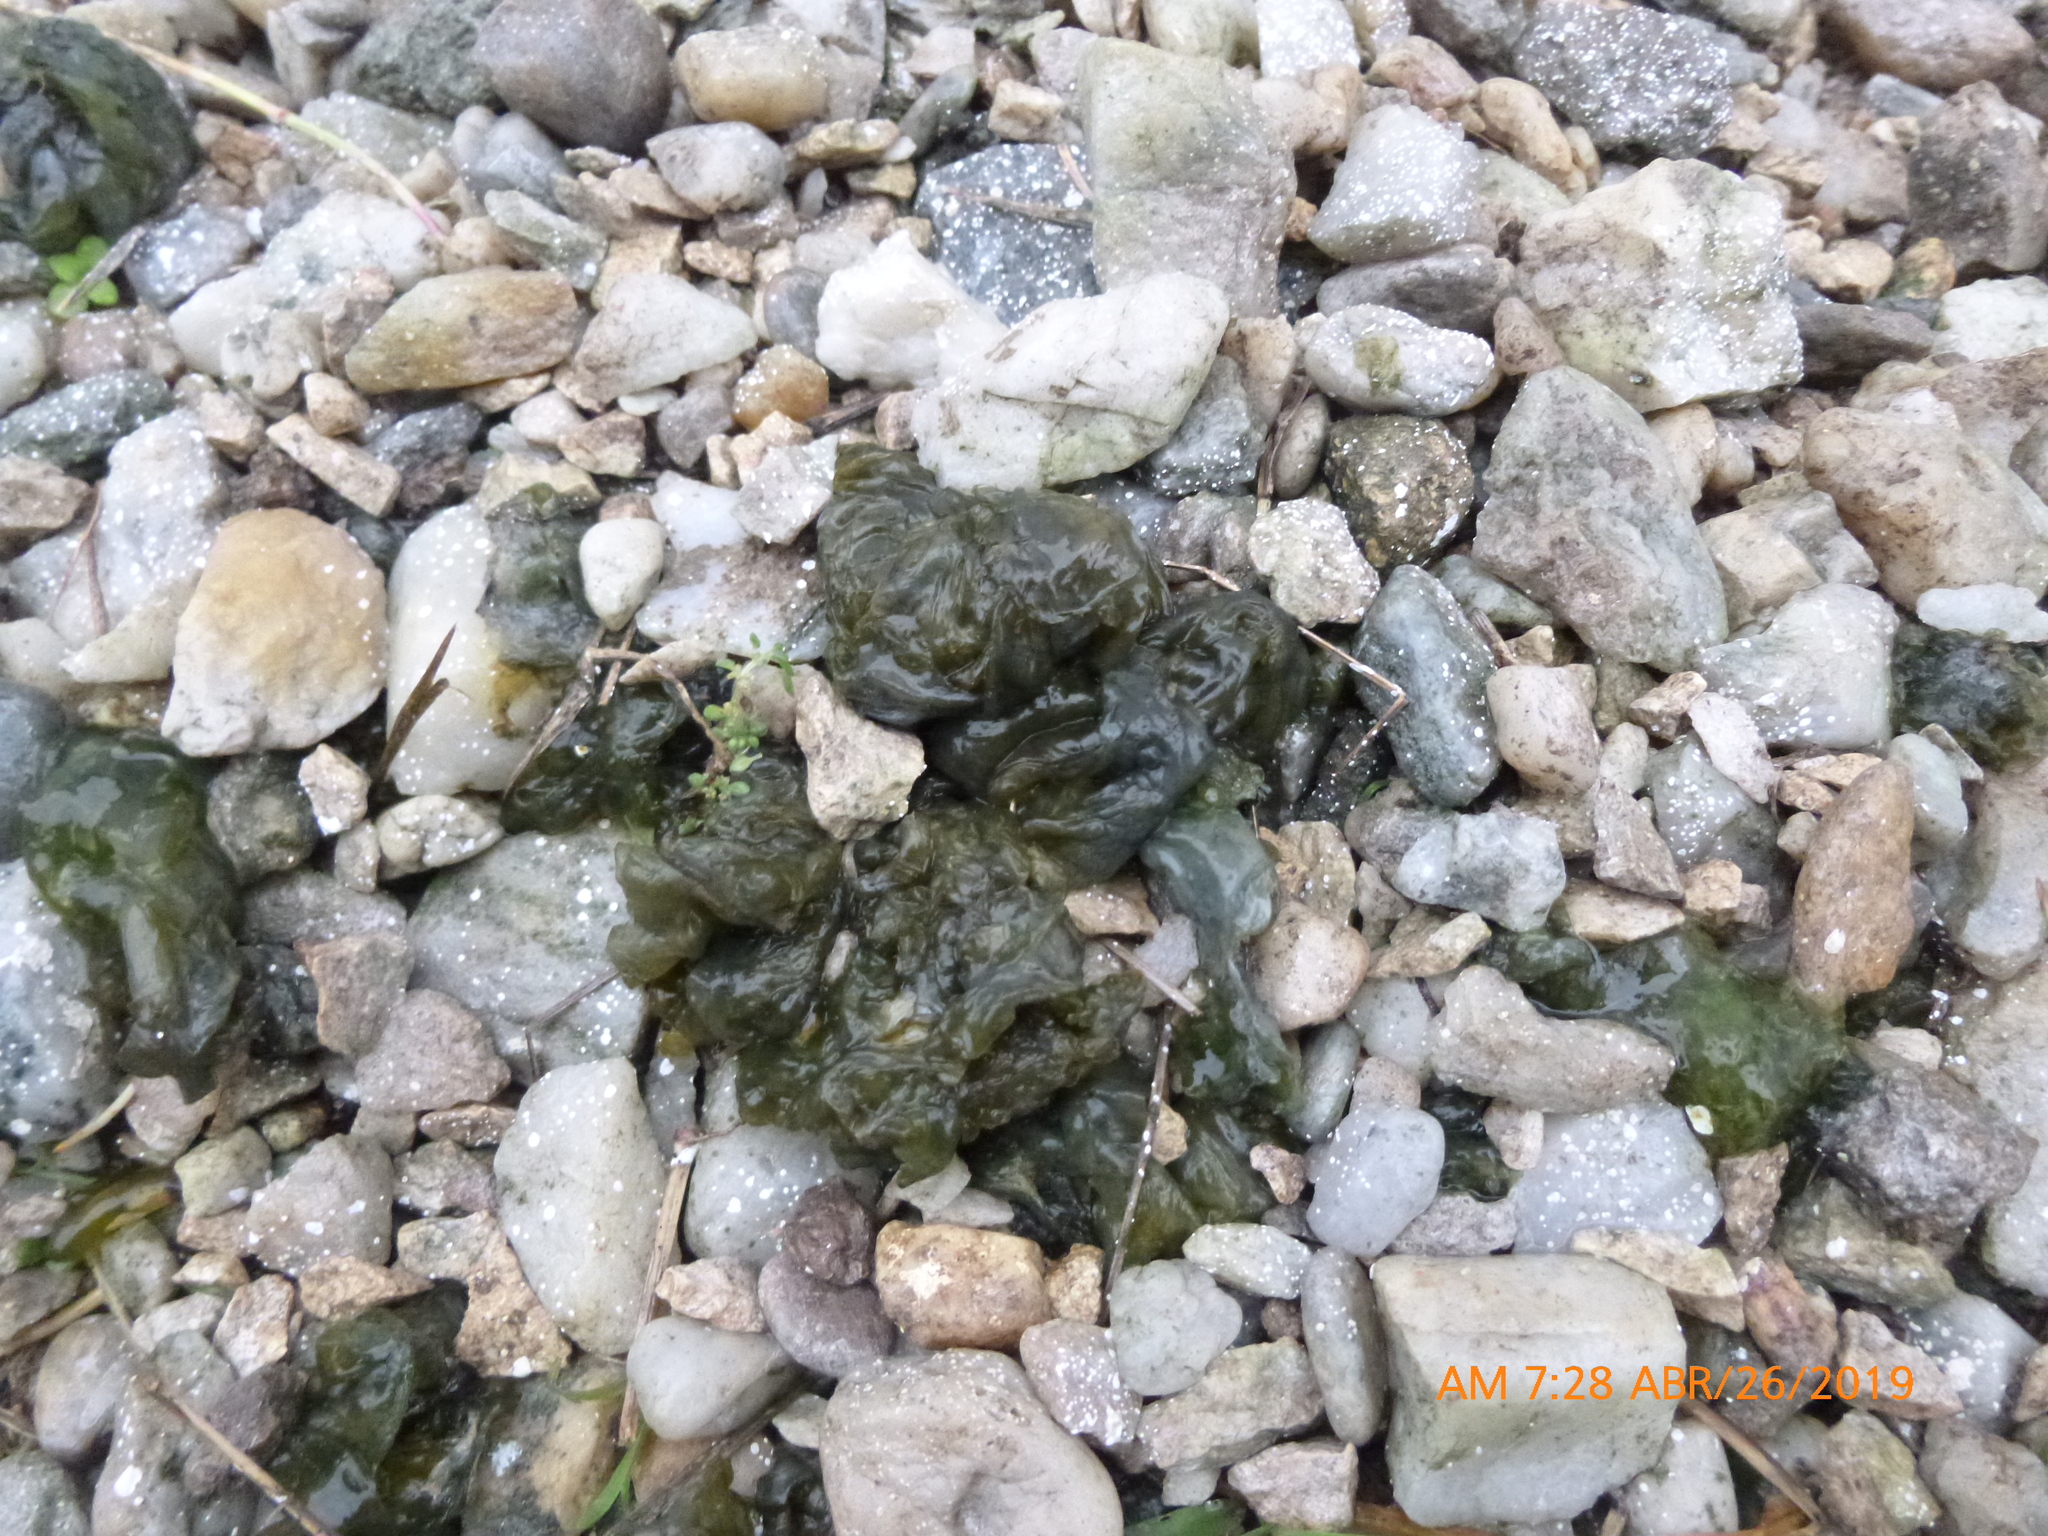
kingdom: Bacteria
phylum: Cyanobacteria
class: Cyanobacteriia
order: Cyanobacteriales
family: Nostocaceae
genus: Nostoc
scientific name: Nostoc commune
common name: Star jelly
